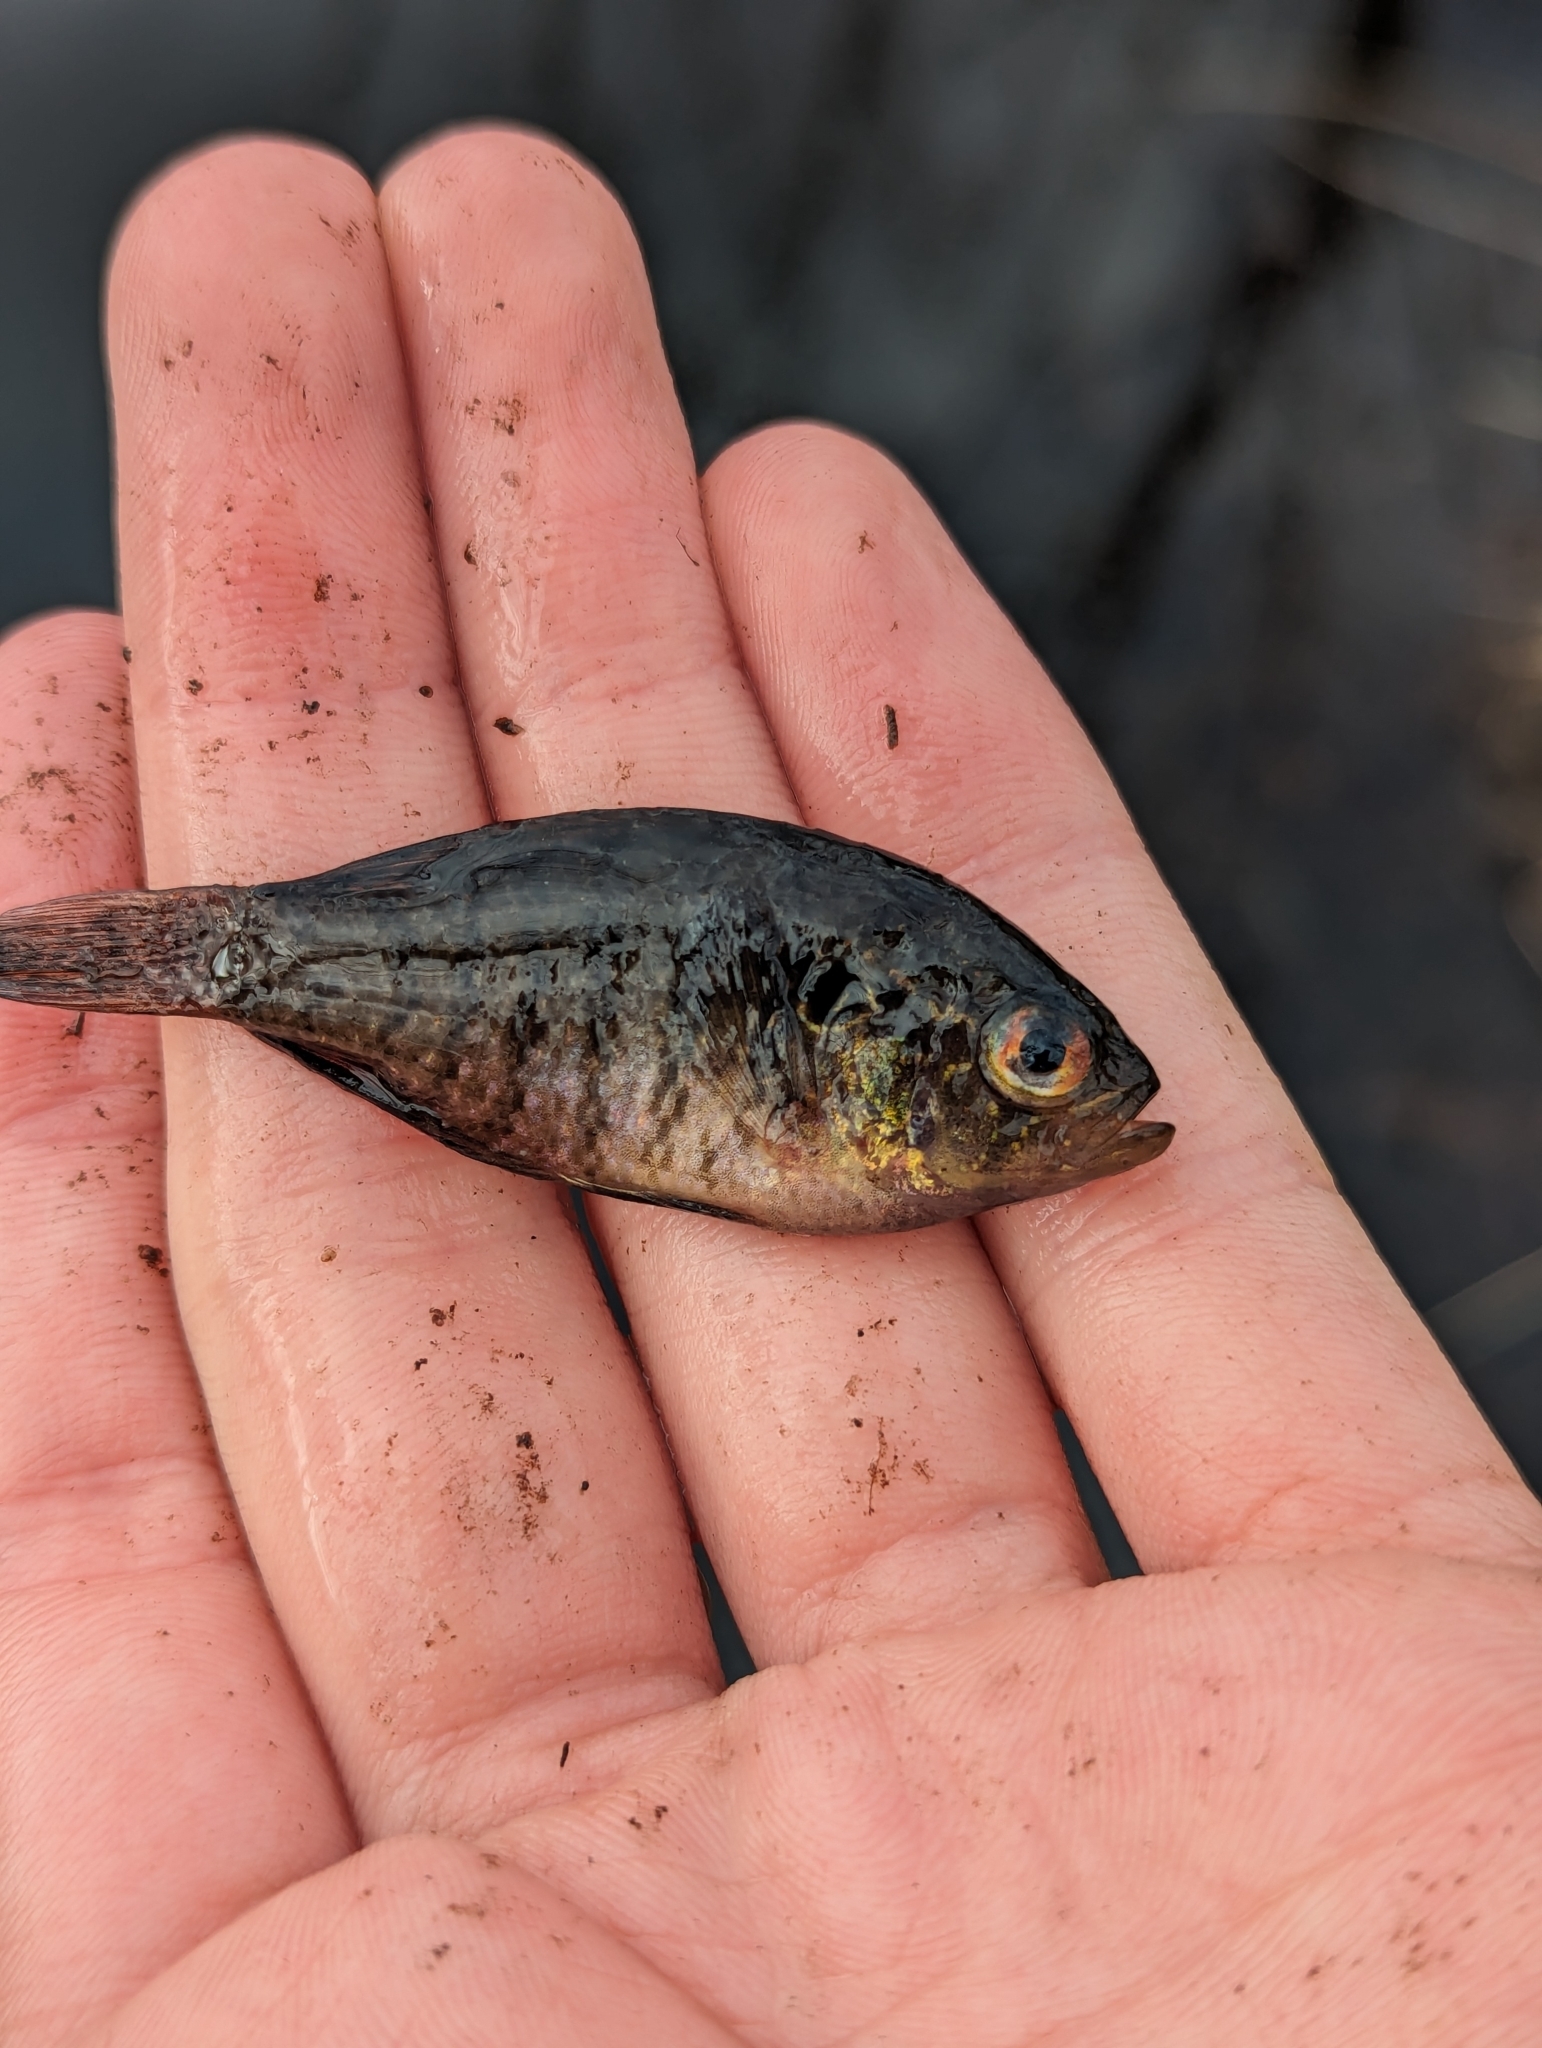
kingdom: Animalia
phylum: Chordata
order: Perciformes
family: Centrarchidae
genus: Enneacanthus
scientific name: Enneacanthus obesus
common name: Banded sunfish
